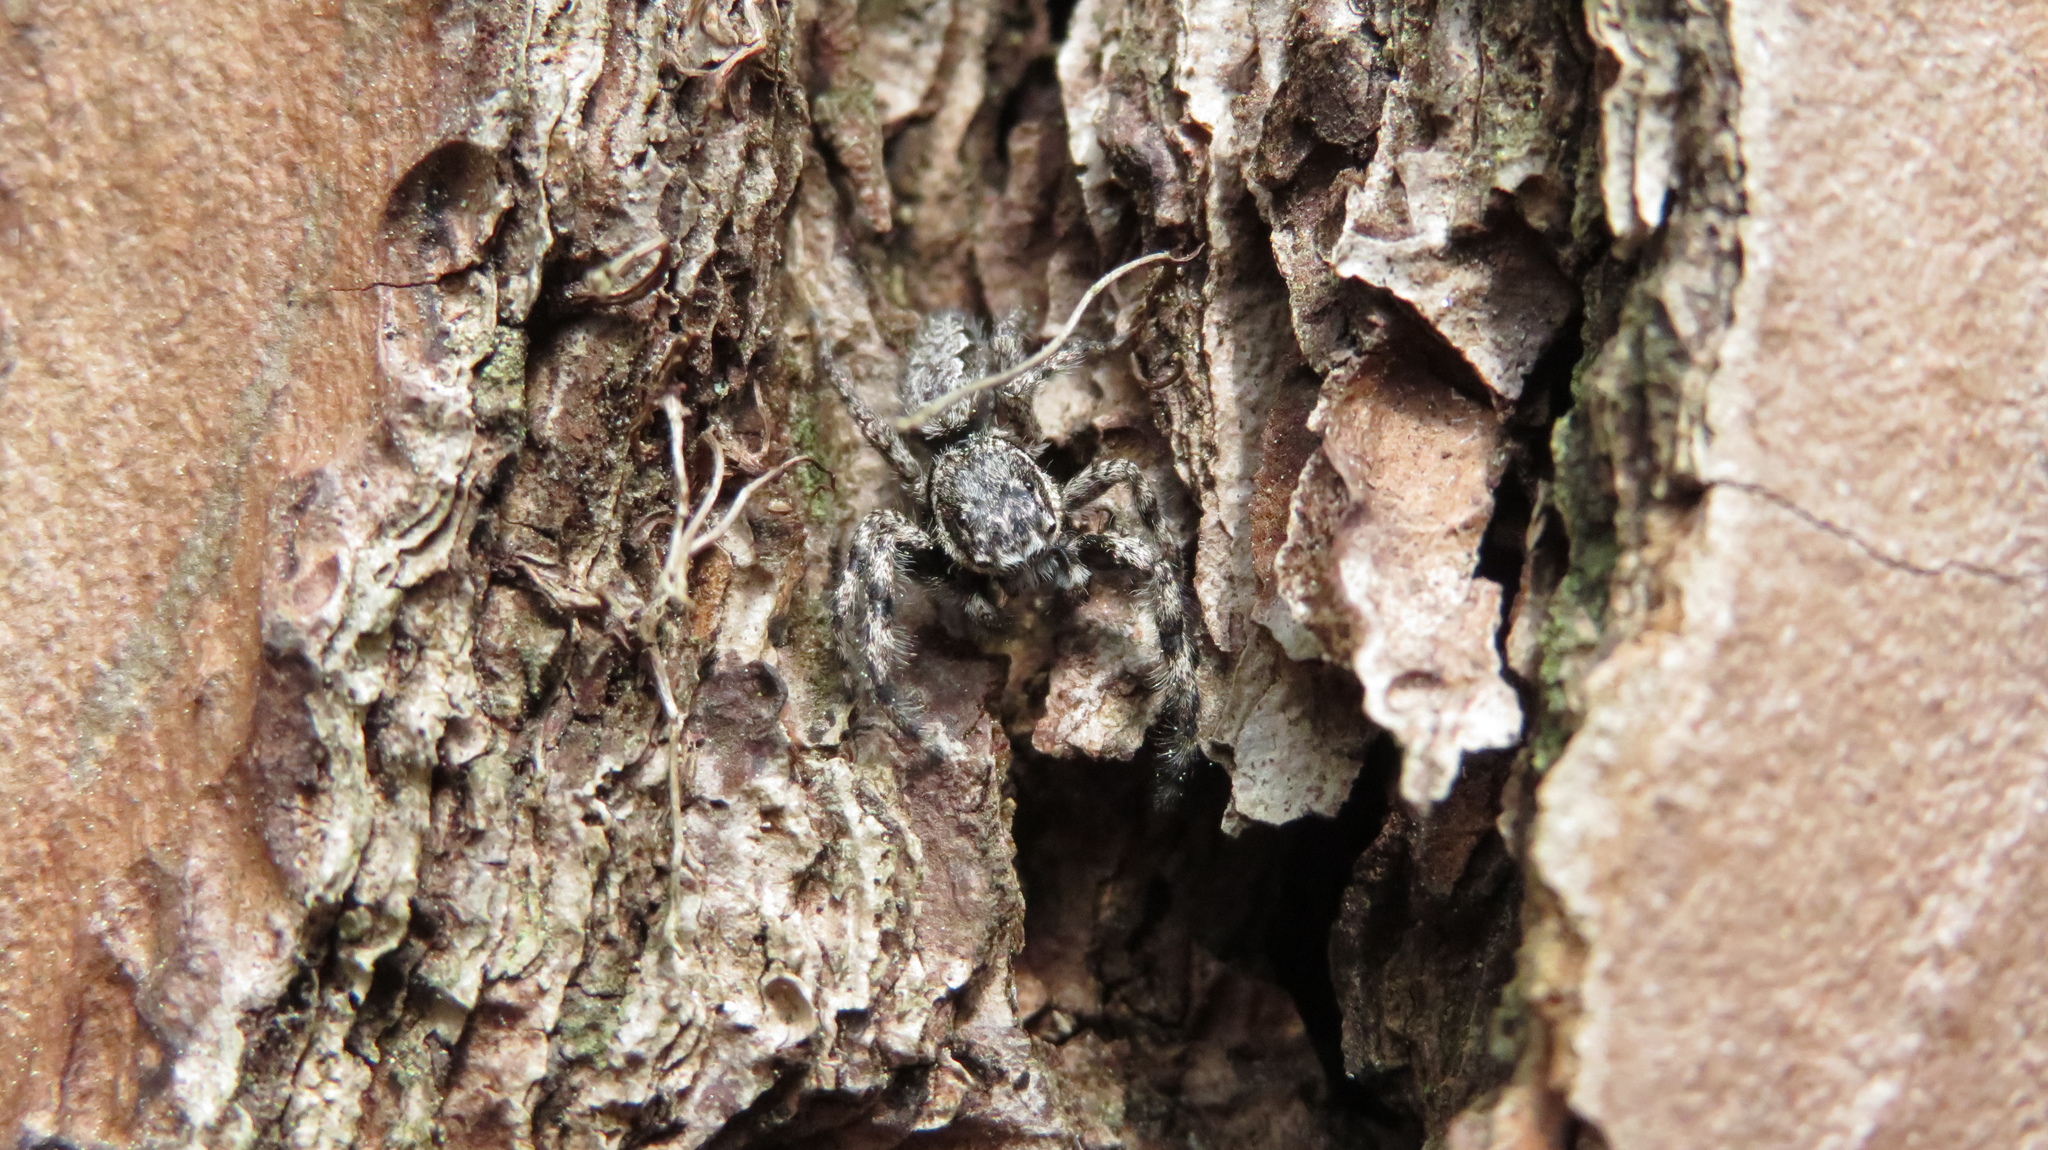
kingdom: Animalia
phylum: Arthropoda
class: Arachnida
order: Araneae
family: Salticidae
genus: Platycryptus
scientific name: Platycryptus undatus
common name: Tan jumping spider
